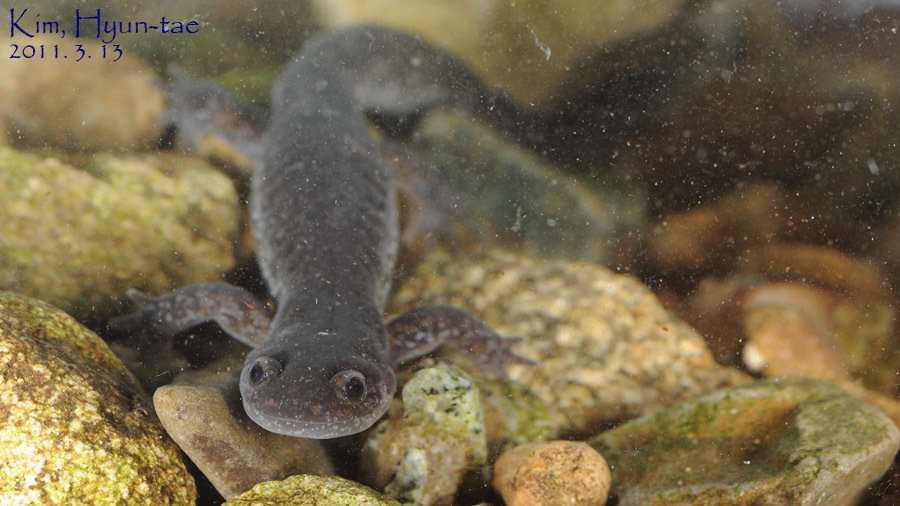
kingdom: Animalia
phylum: Chordata
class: Amphibia
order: Caudata
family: Hynobiidae
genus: Hynobius
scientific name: Hynobius quelpaertensis
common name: Cheju salamander
